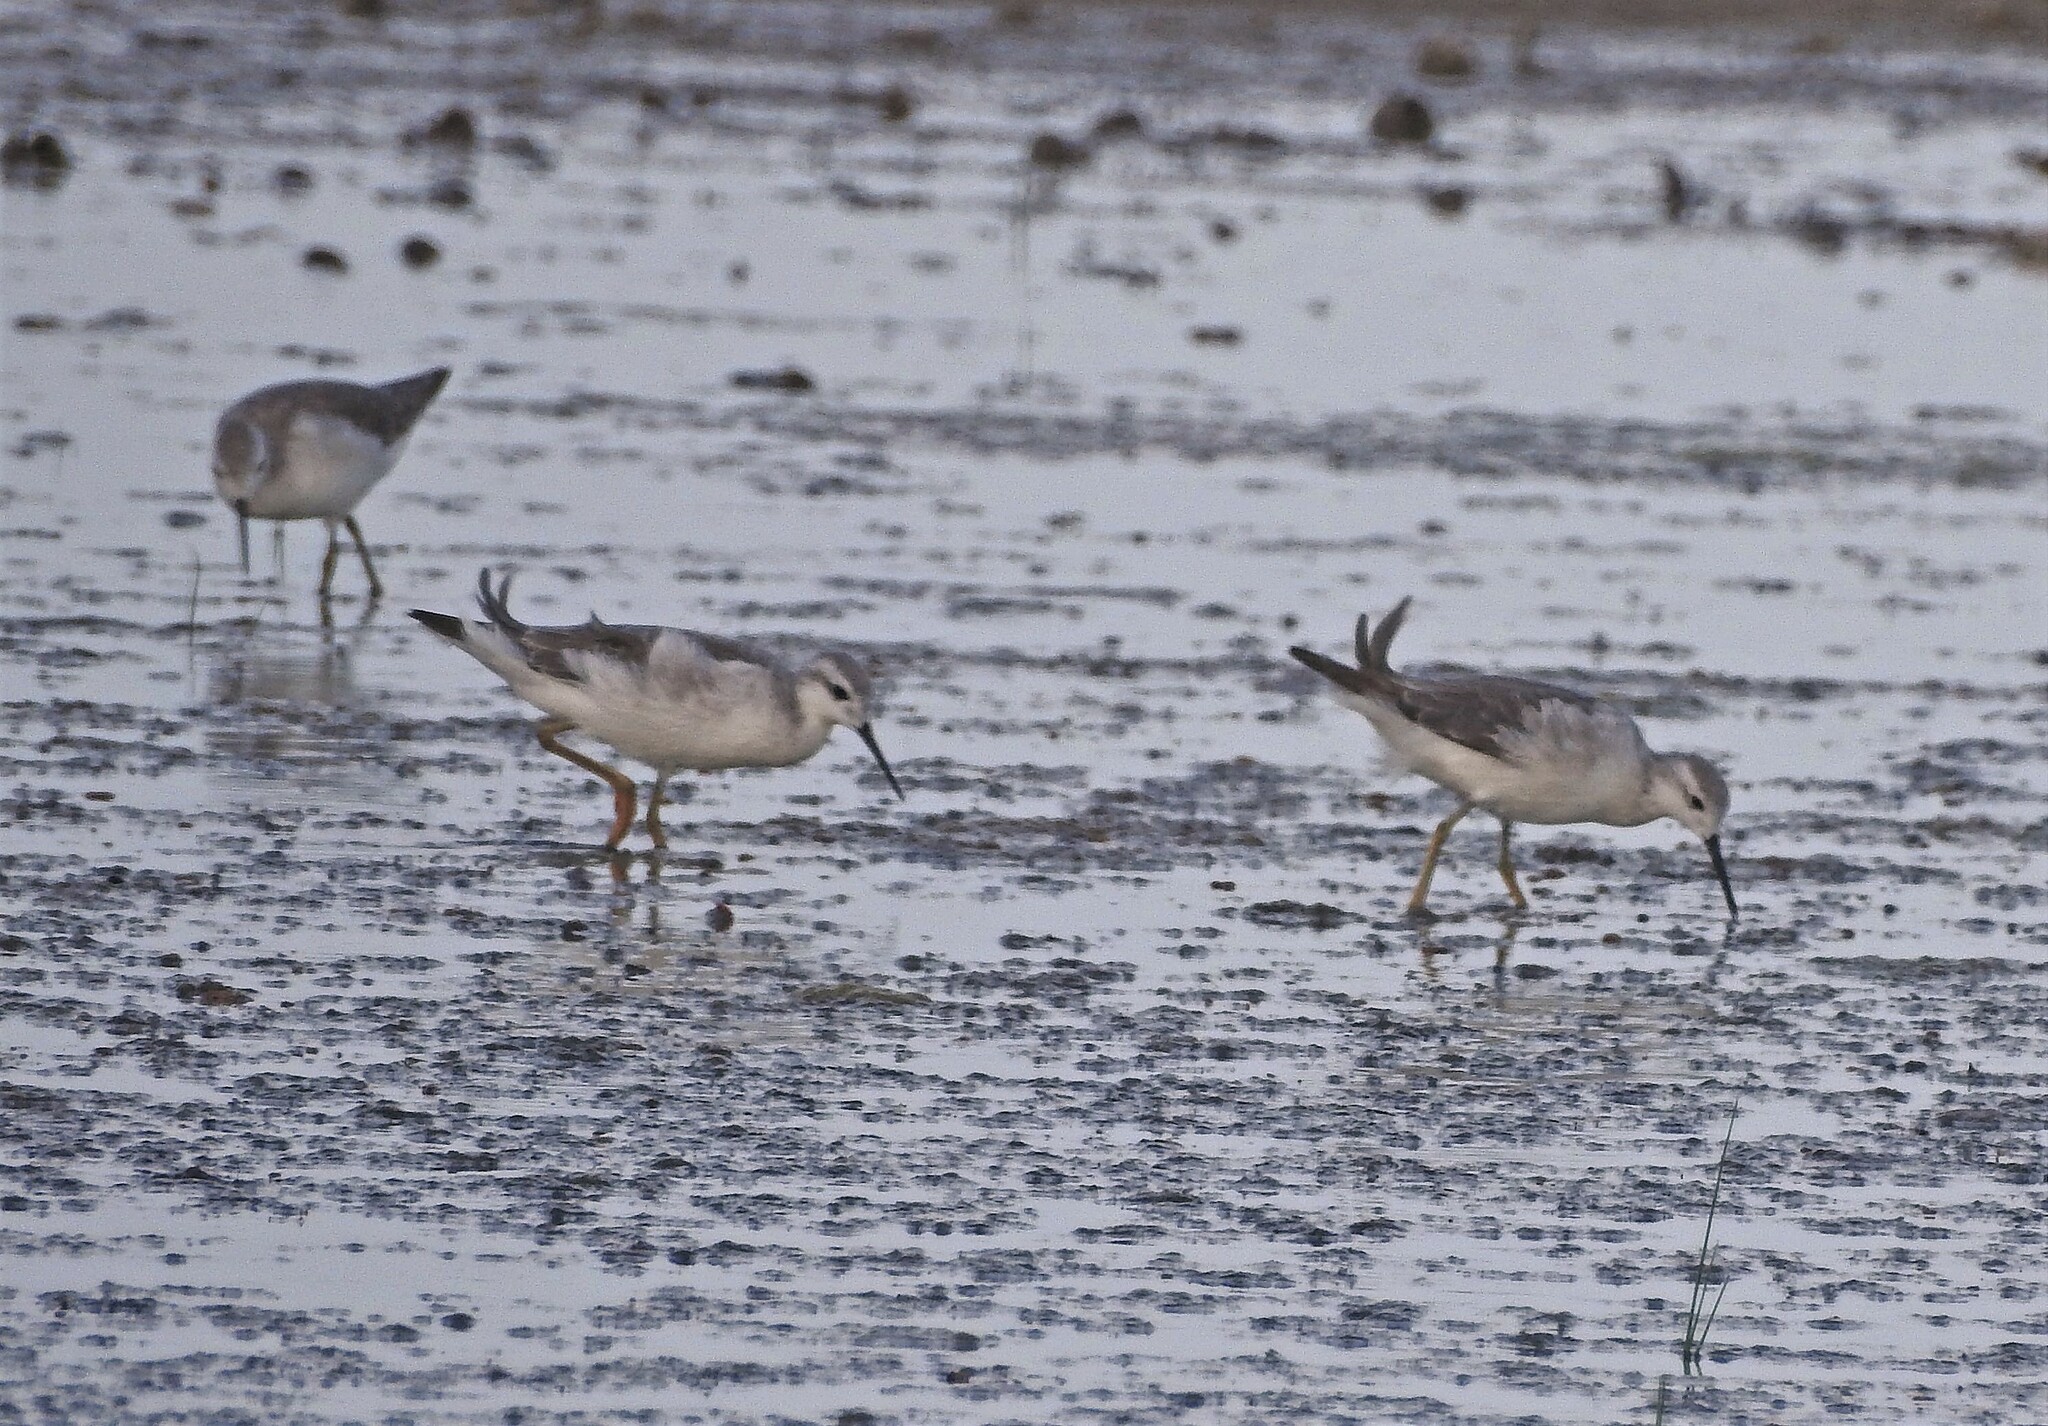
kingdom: Animalia
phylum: Chordata
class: Aves
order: Charadriiformes
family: Scolopacidae
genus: Phalaropus
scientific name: Phalaropus tricolor
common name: Wilson's phalarope
